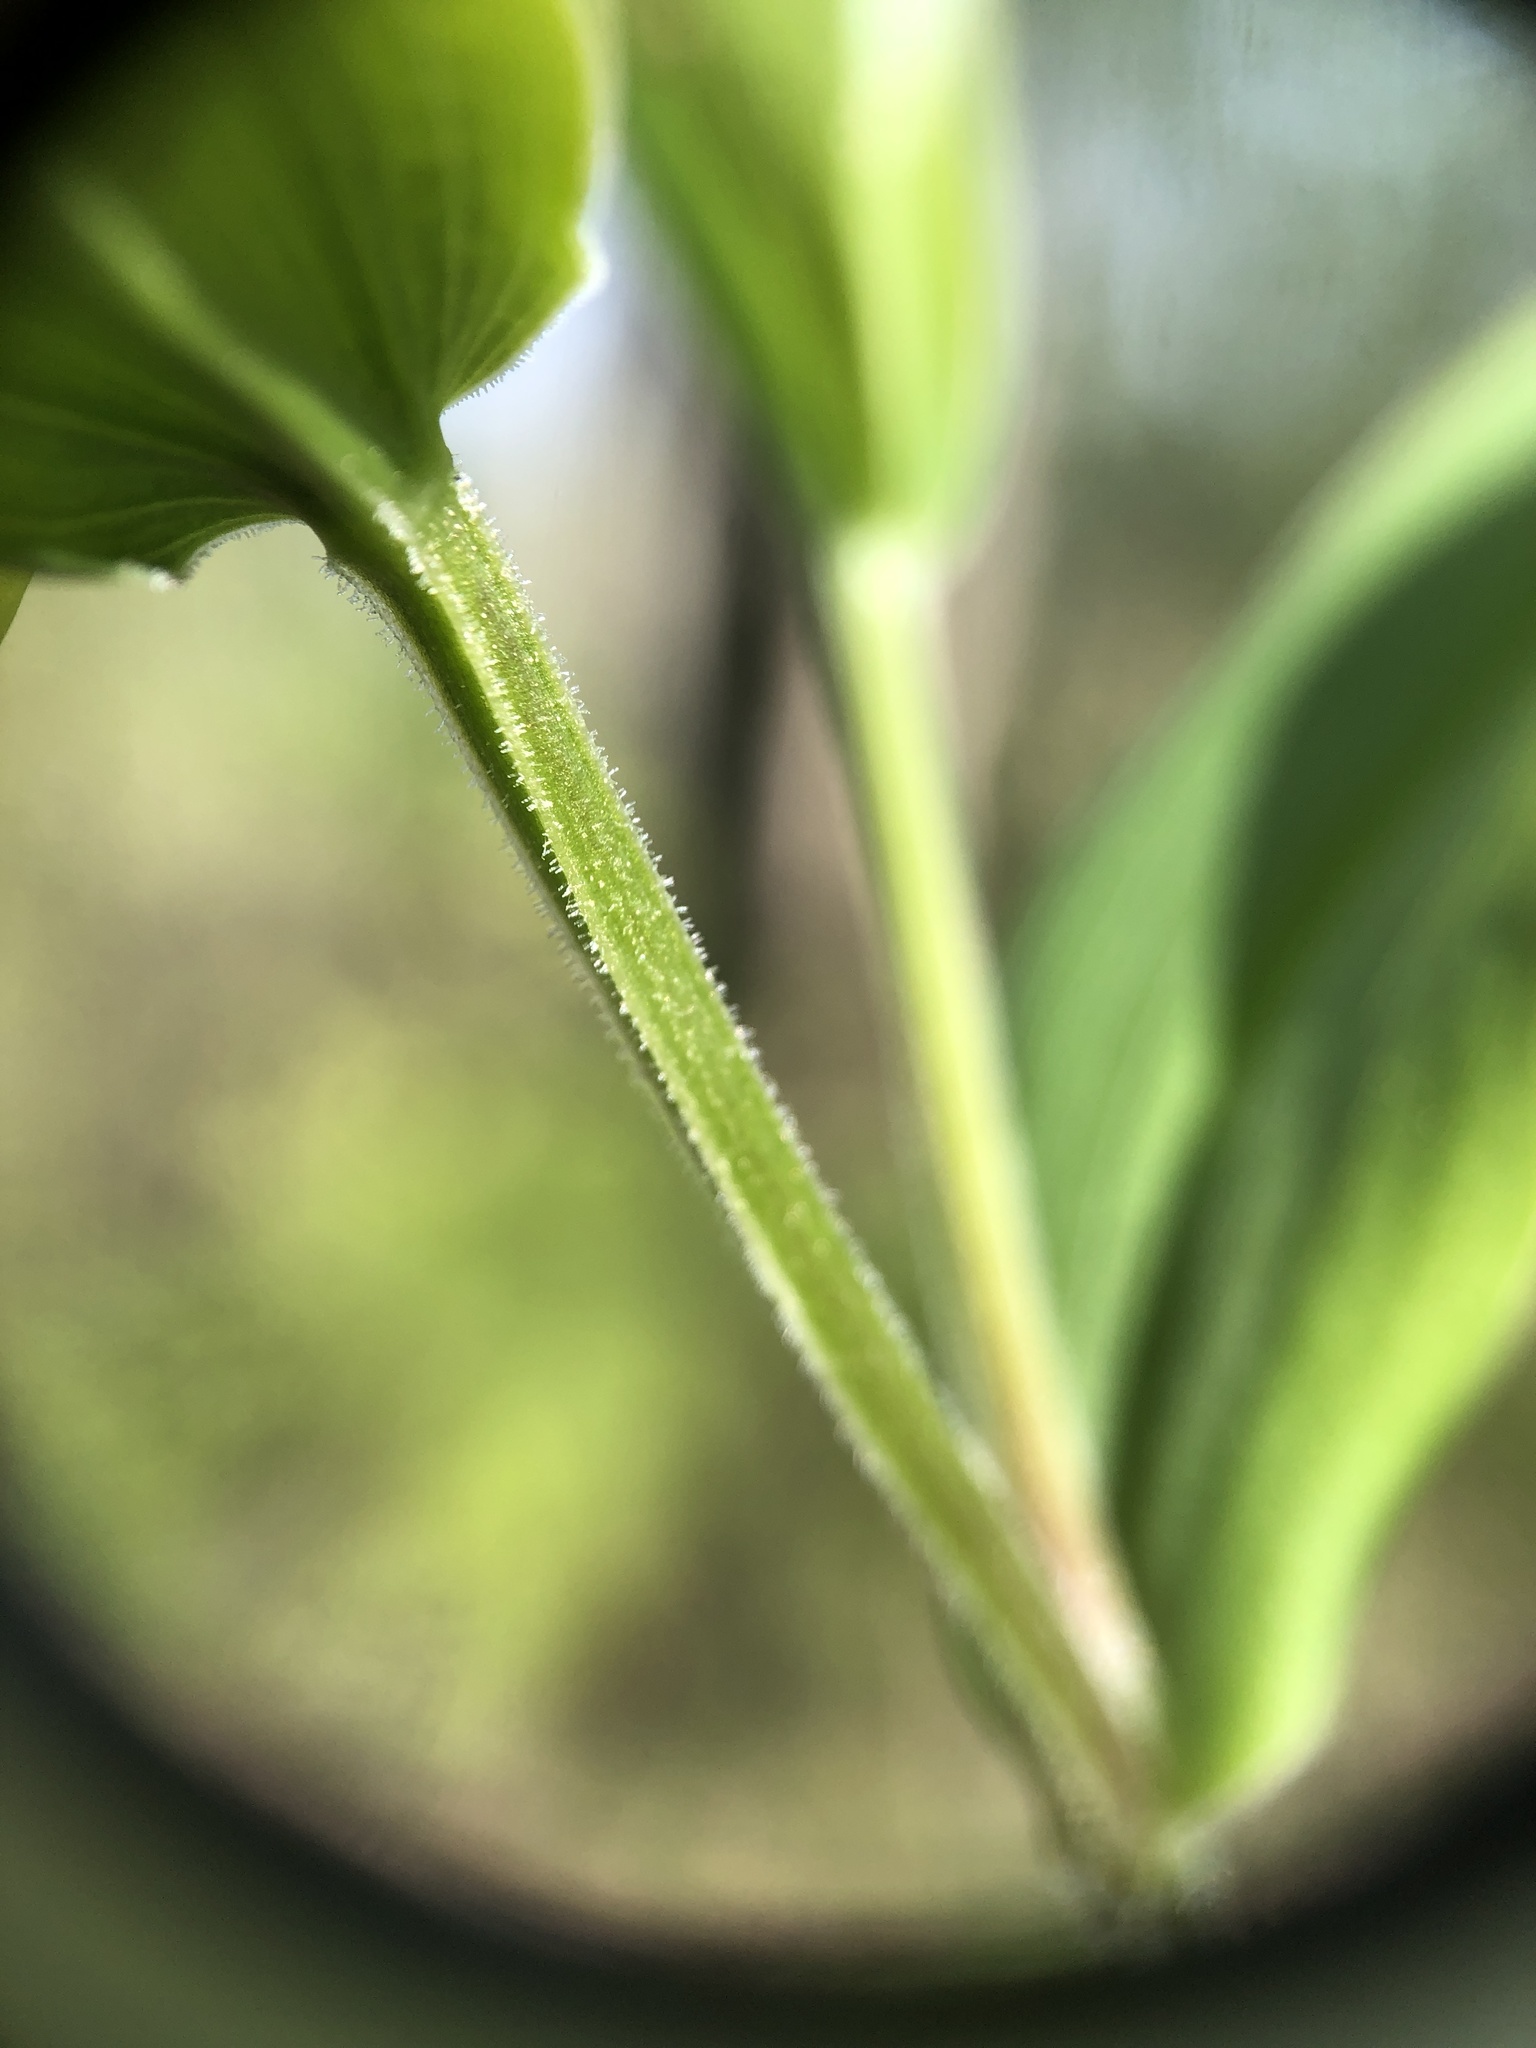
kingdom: Plantae
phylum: Tracheophyta
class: Liliopsida
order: Liliales
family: Colchicaceae
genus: Uvularia
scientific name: Uvularia puberula
